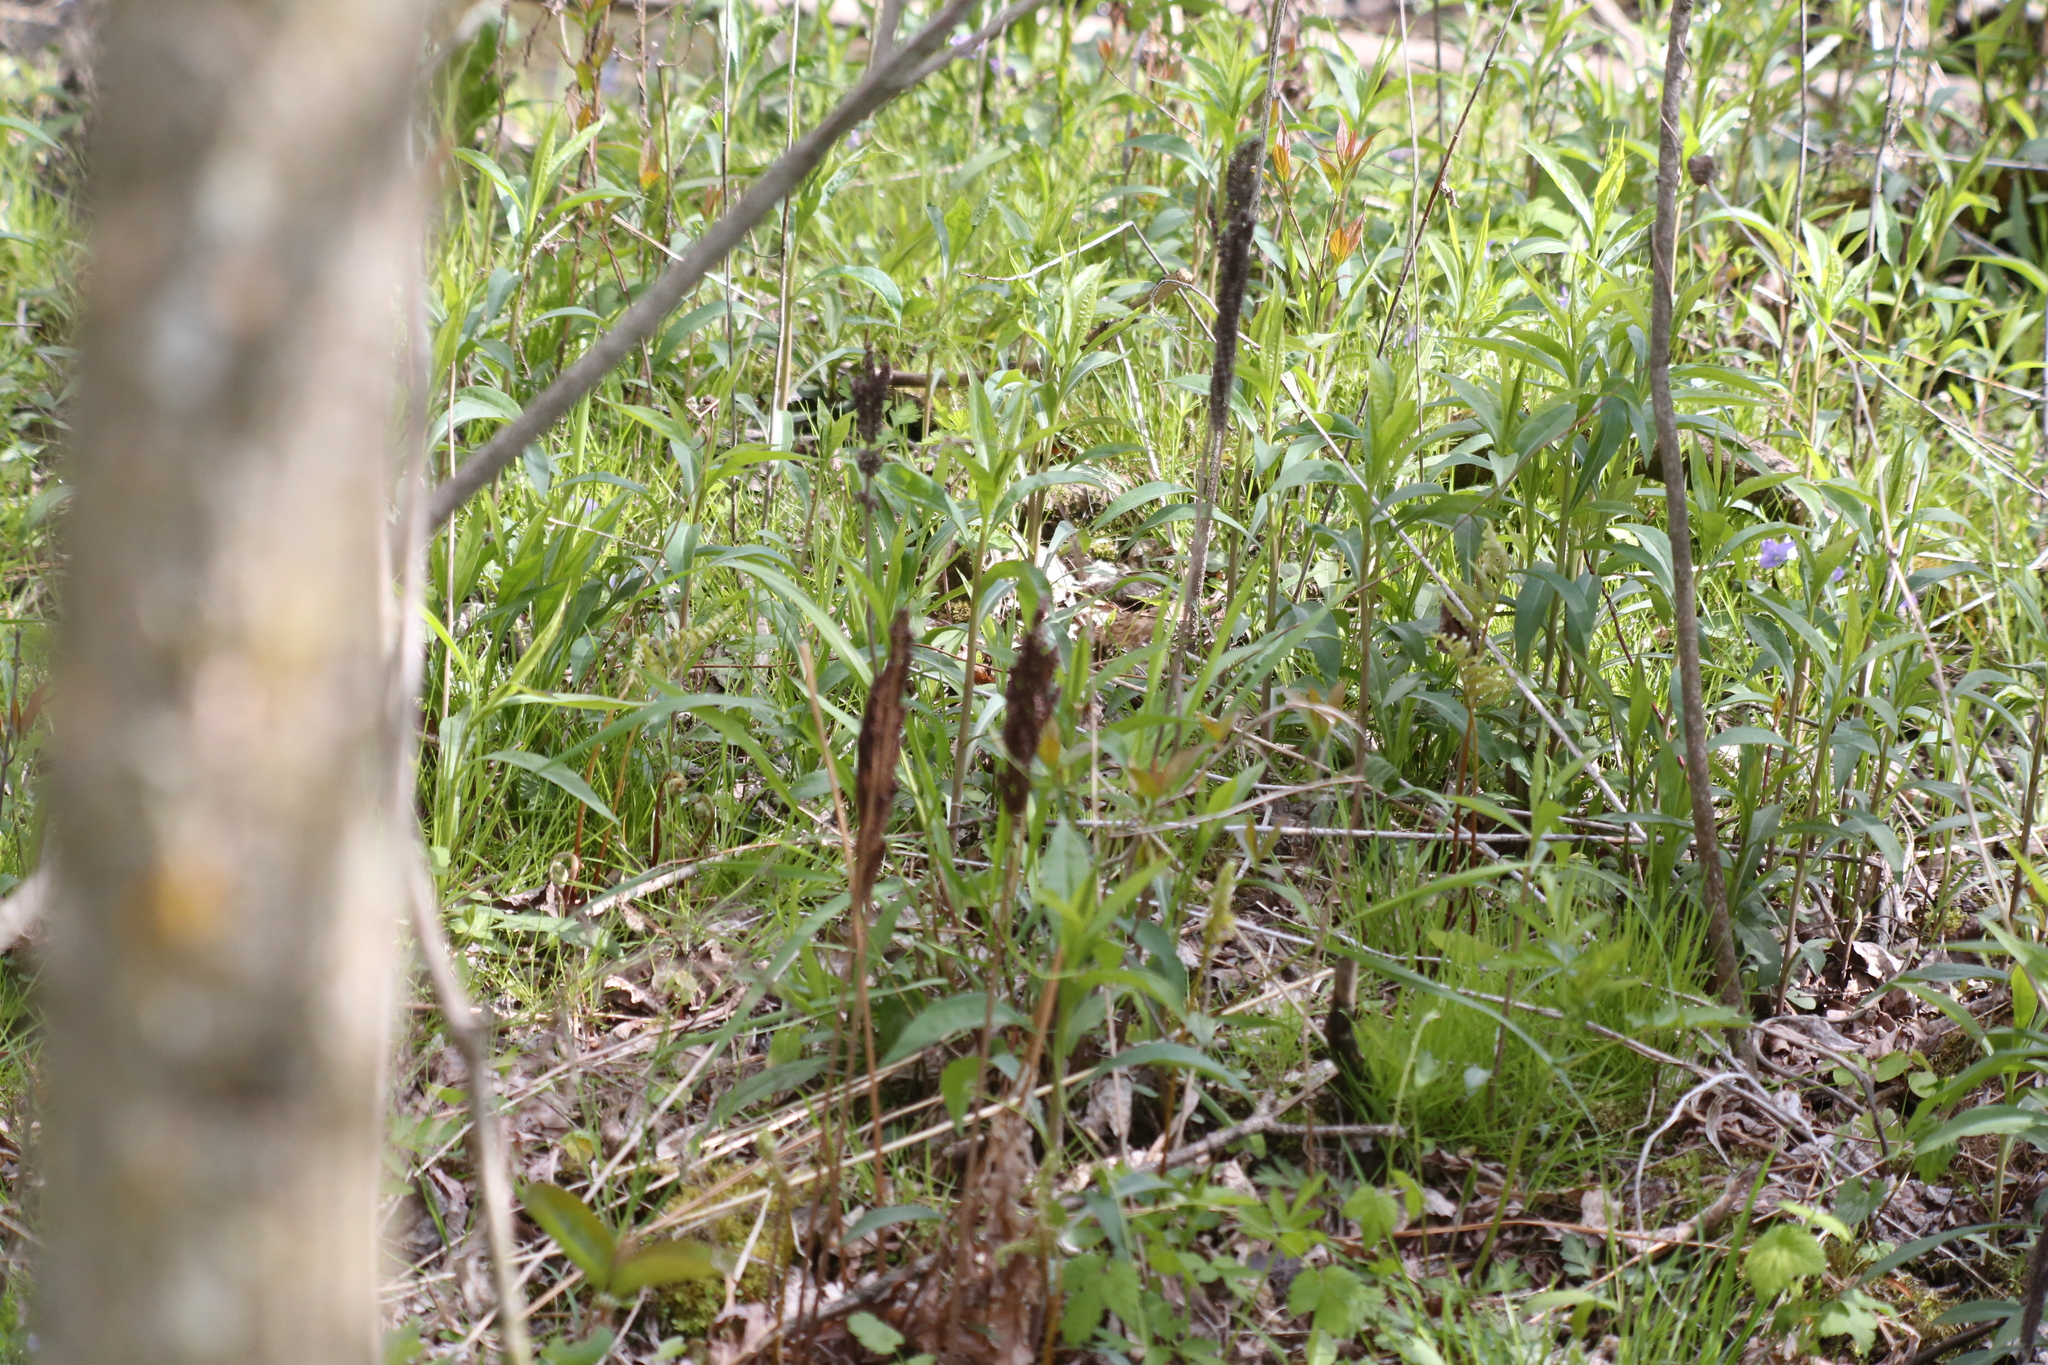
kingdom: Plantae
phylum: Tracheophyta
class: Polypodiopsida
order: Polypodiales
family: Onocleaceae
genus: Onoclea
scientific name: Onoclea sensibilis
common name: Sensitive fern
